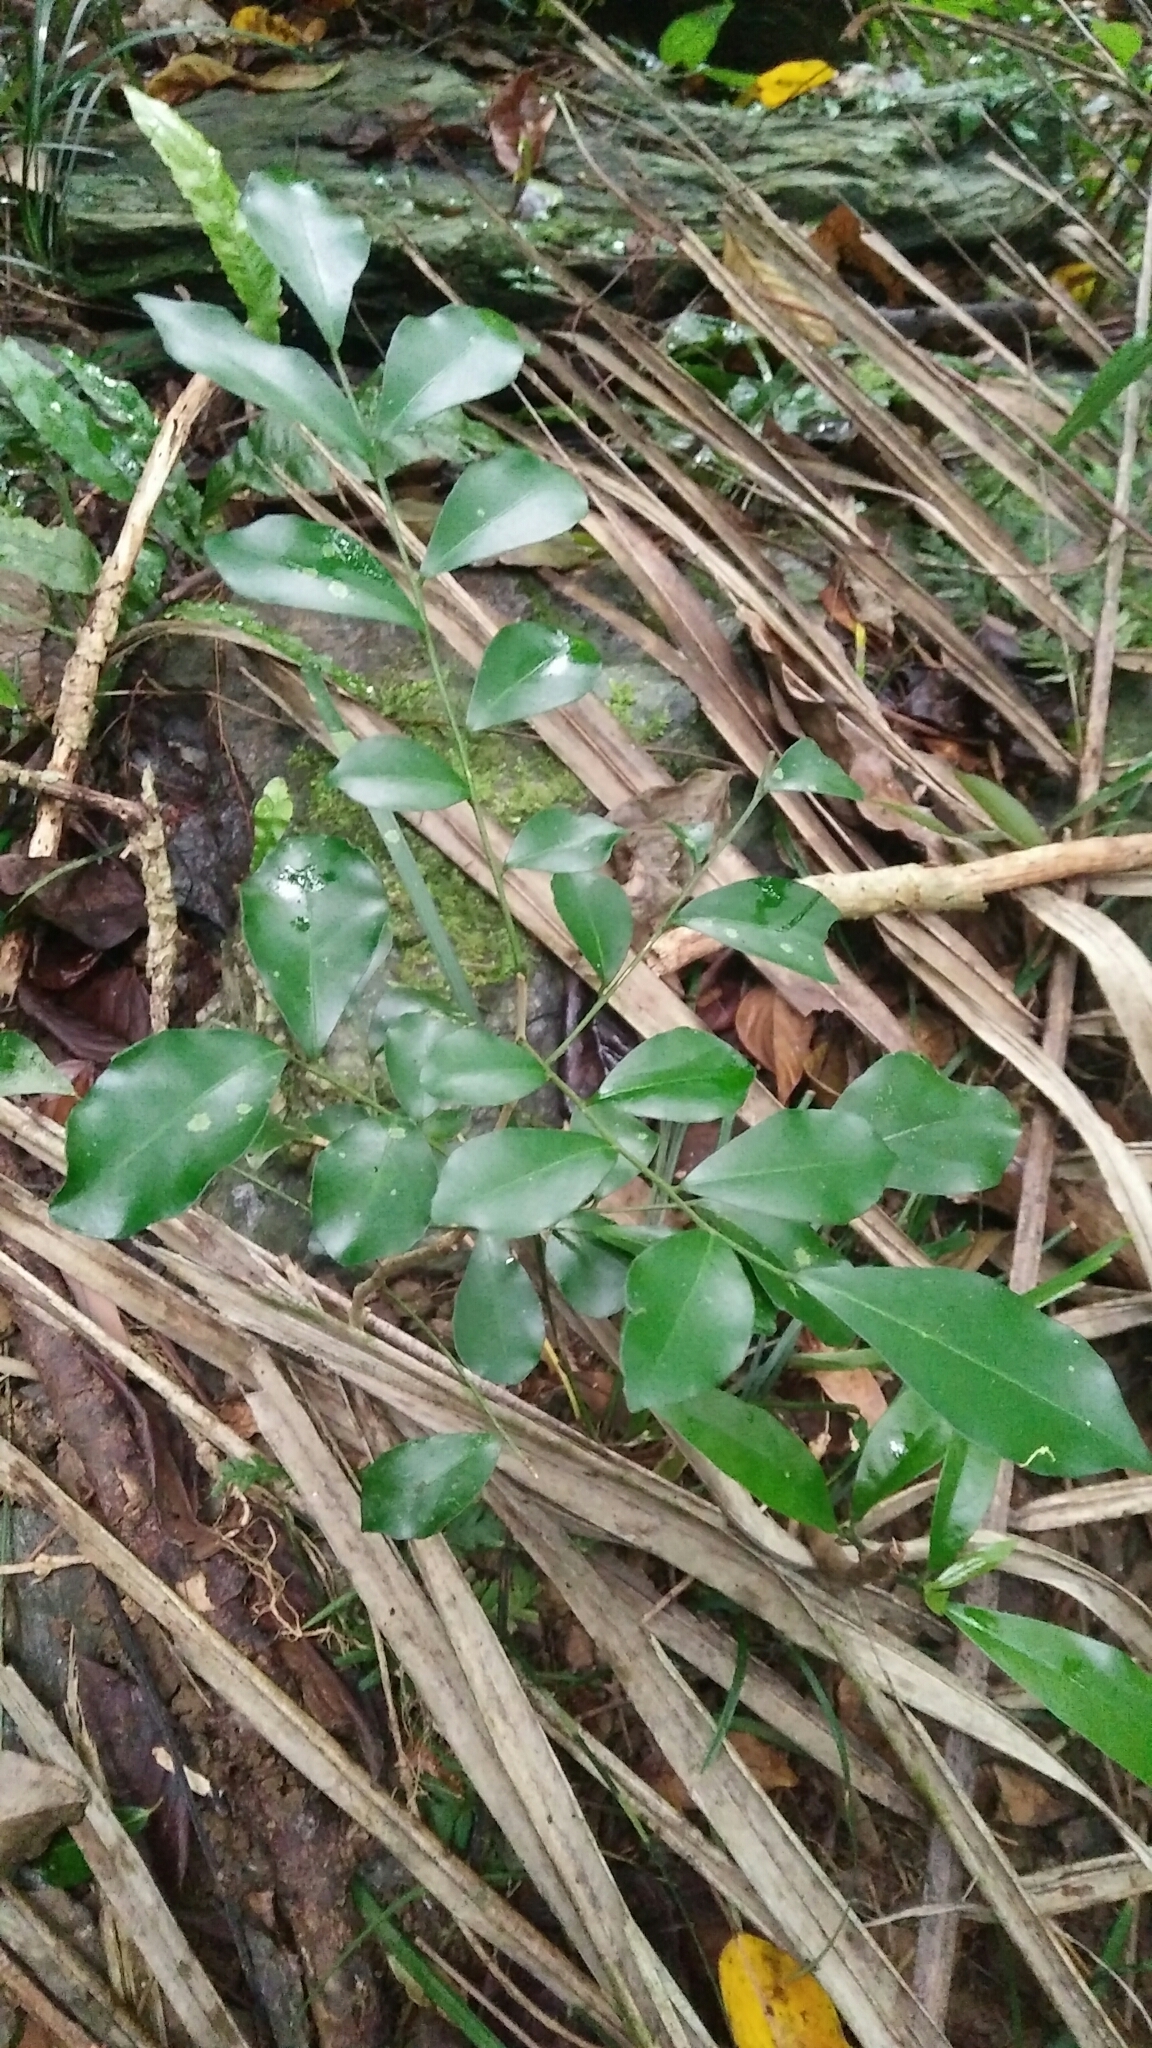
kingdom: Plantae
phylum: Tracheophyta
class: Magnoliopsida
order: Sapindales
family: Rutaceae
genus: Murraya
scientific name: Murraya paniculata
